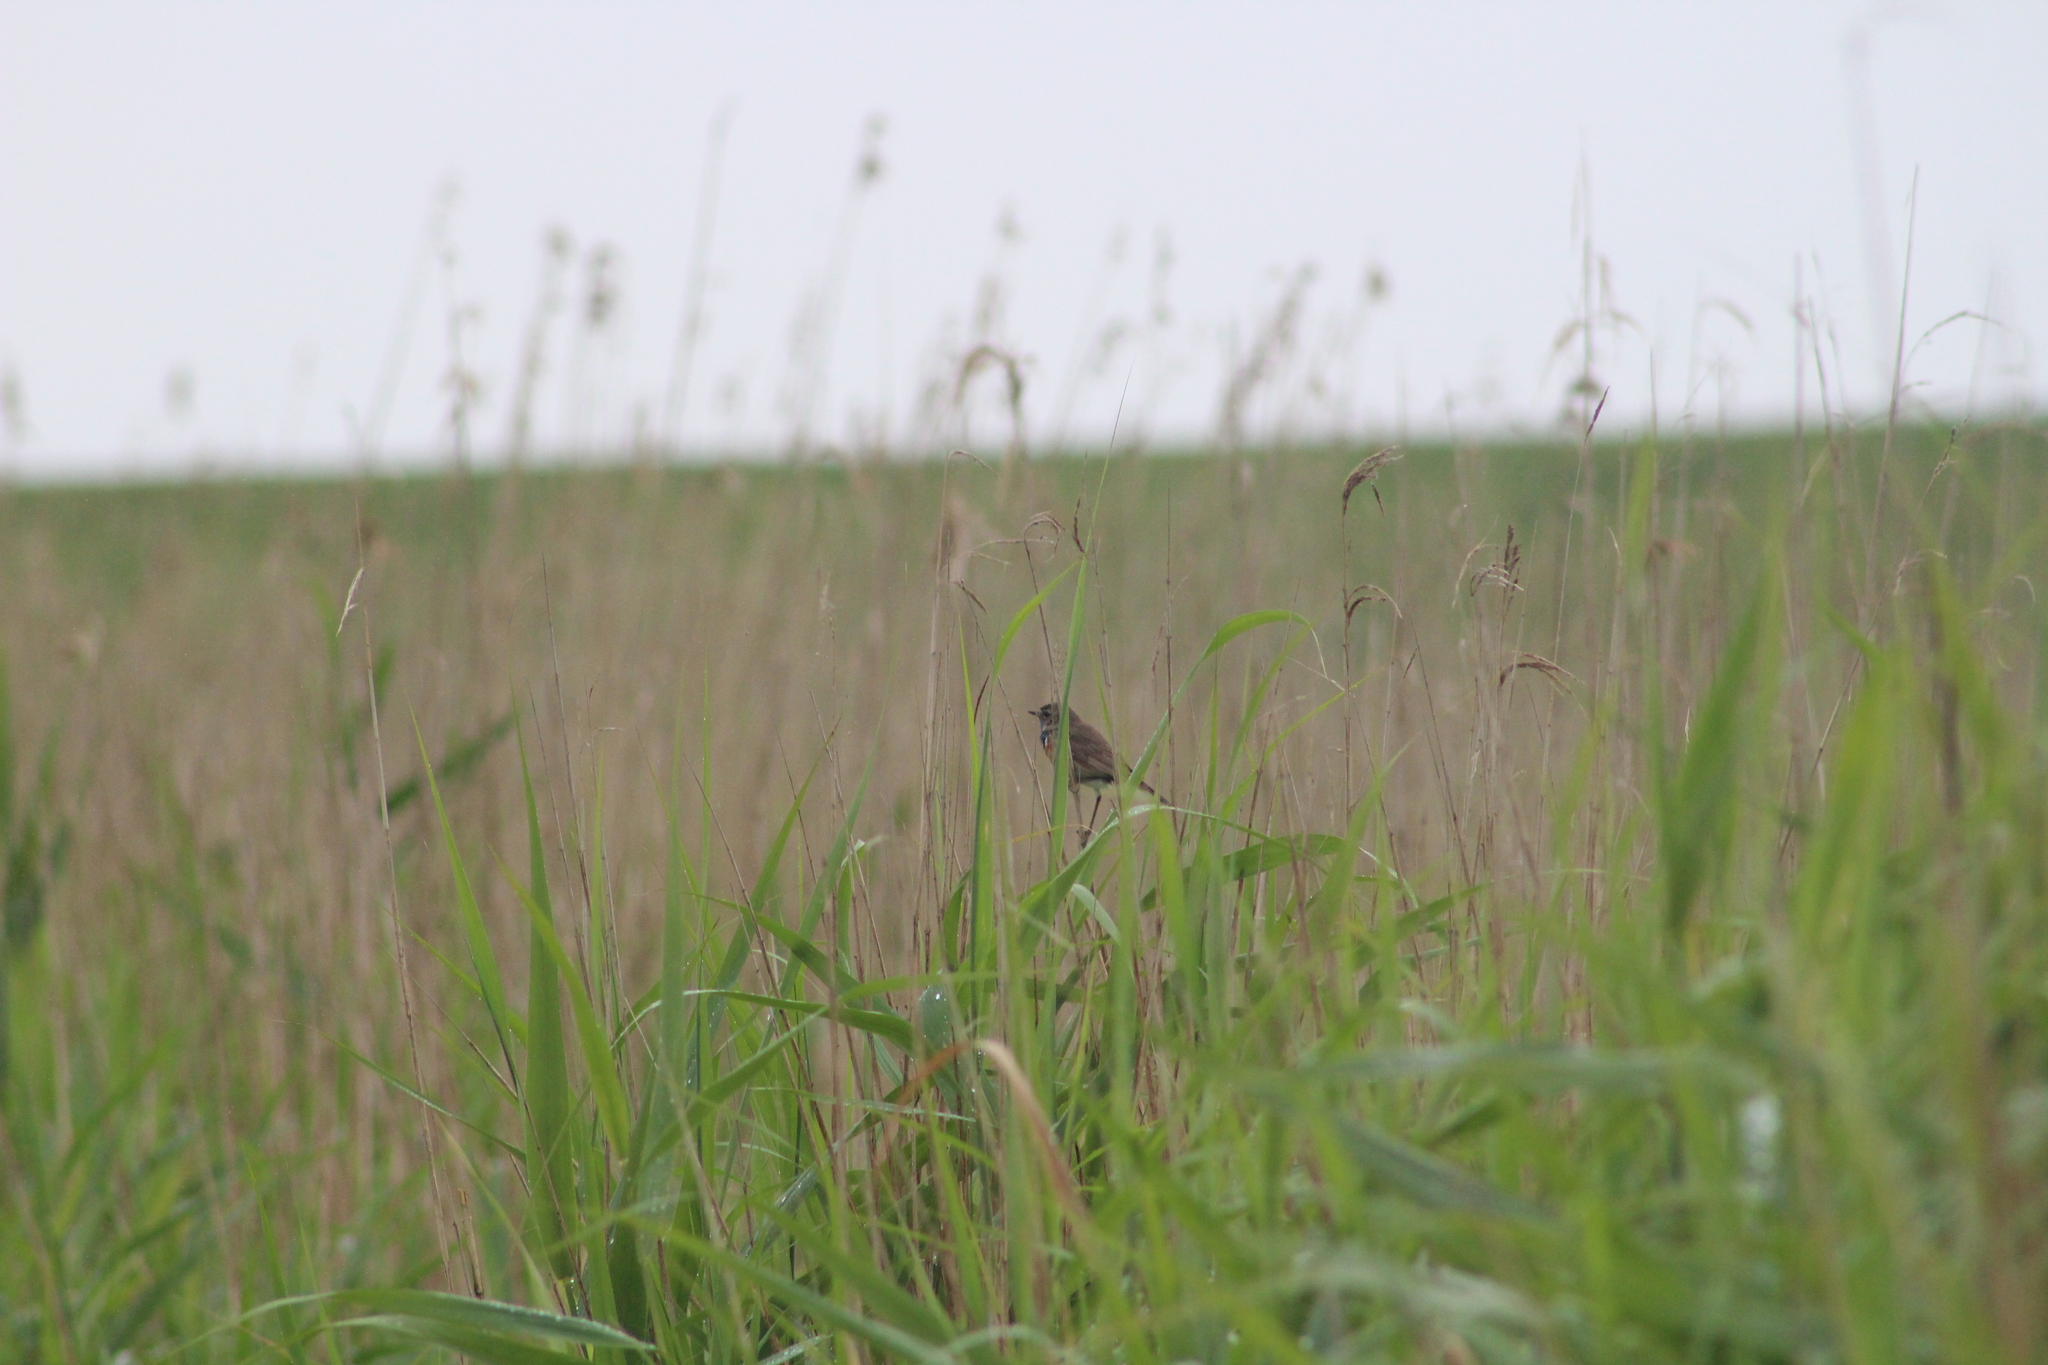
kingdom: Animalia
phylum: Chordata
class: Aves
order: Passeriformes
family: Muscicapidae
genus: Luscinia
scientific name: Luscinia svecica
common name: Bluethroat
